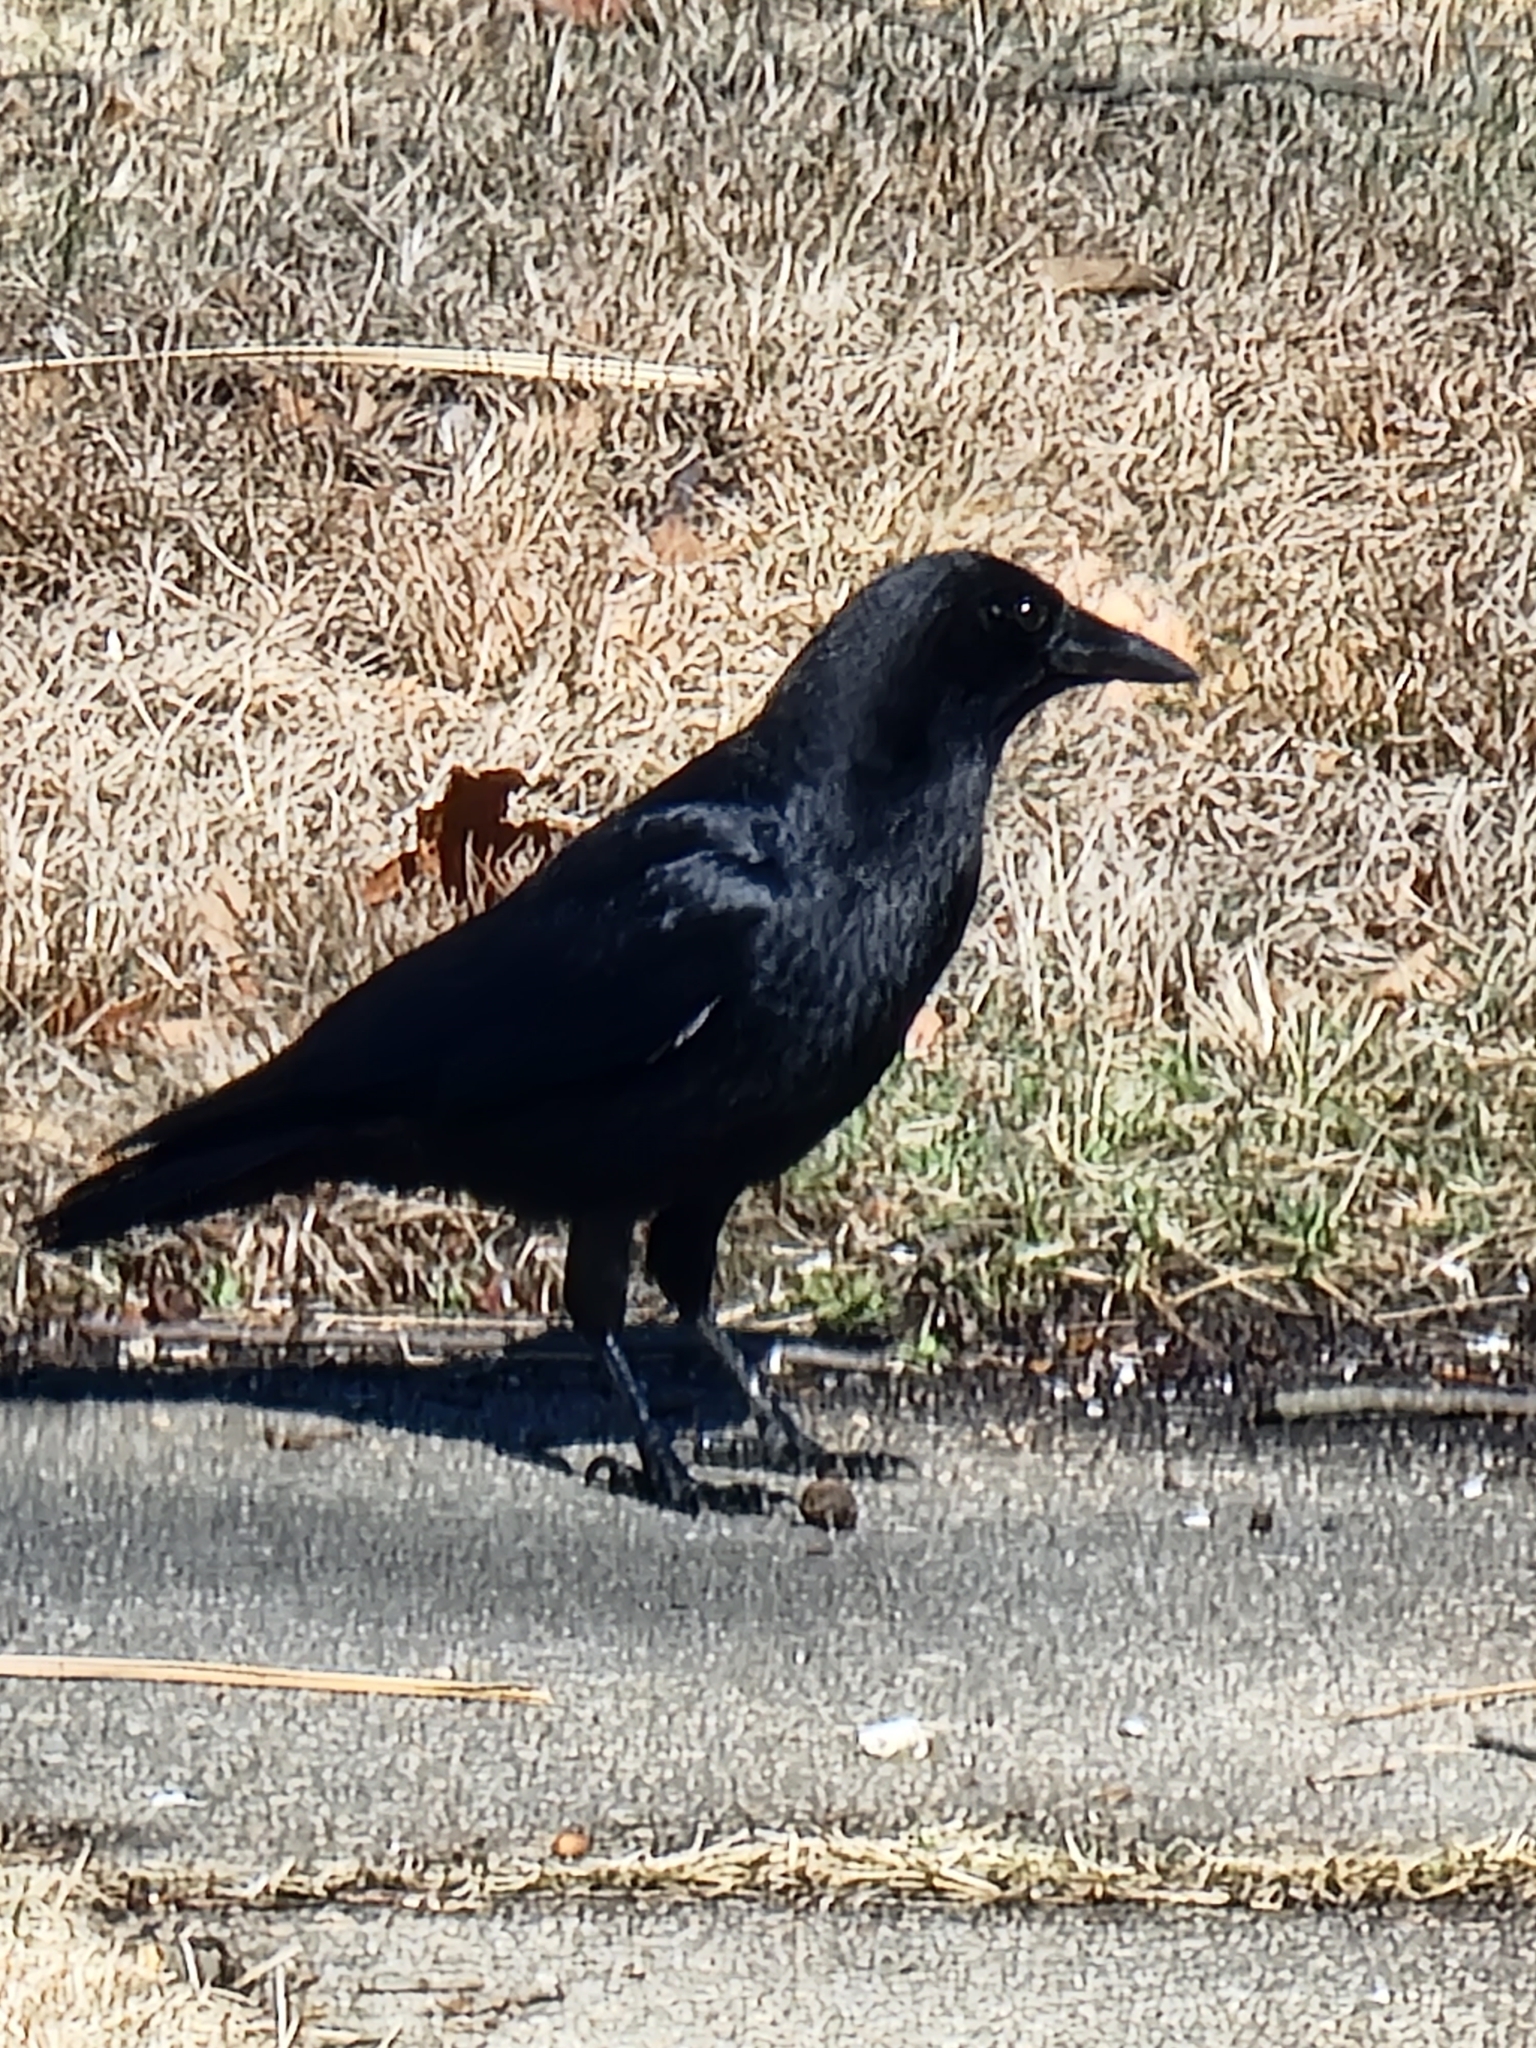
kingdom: Animalia
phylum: Chordata
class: Aves
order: Passeriformes
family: Corvidae
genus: Corvus
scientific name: Corvus brachyrhynchos
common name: American crow
